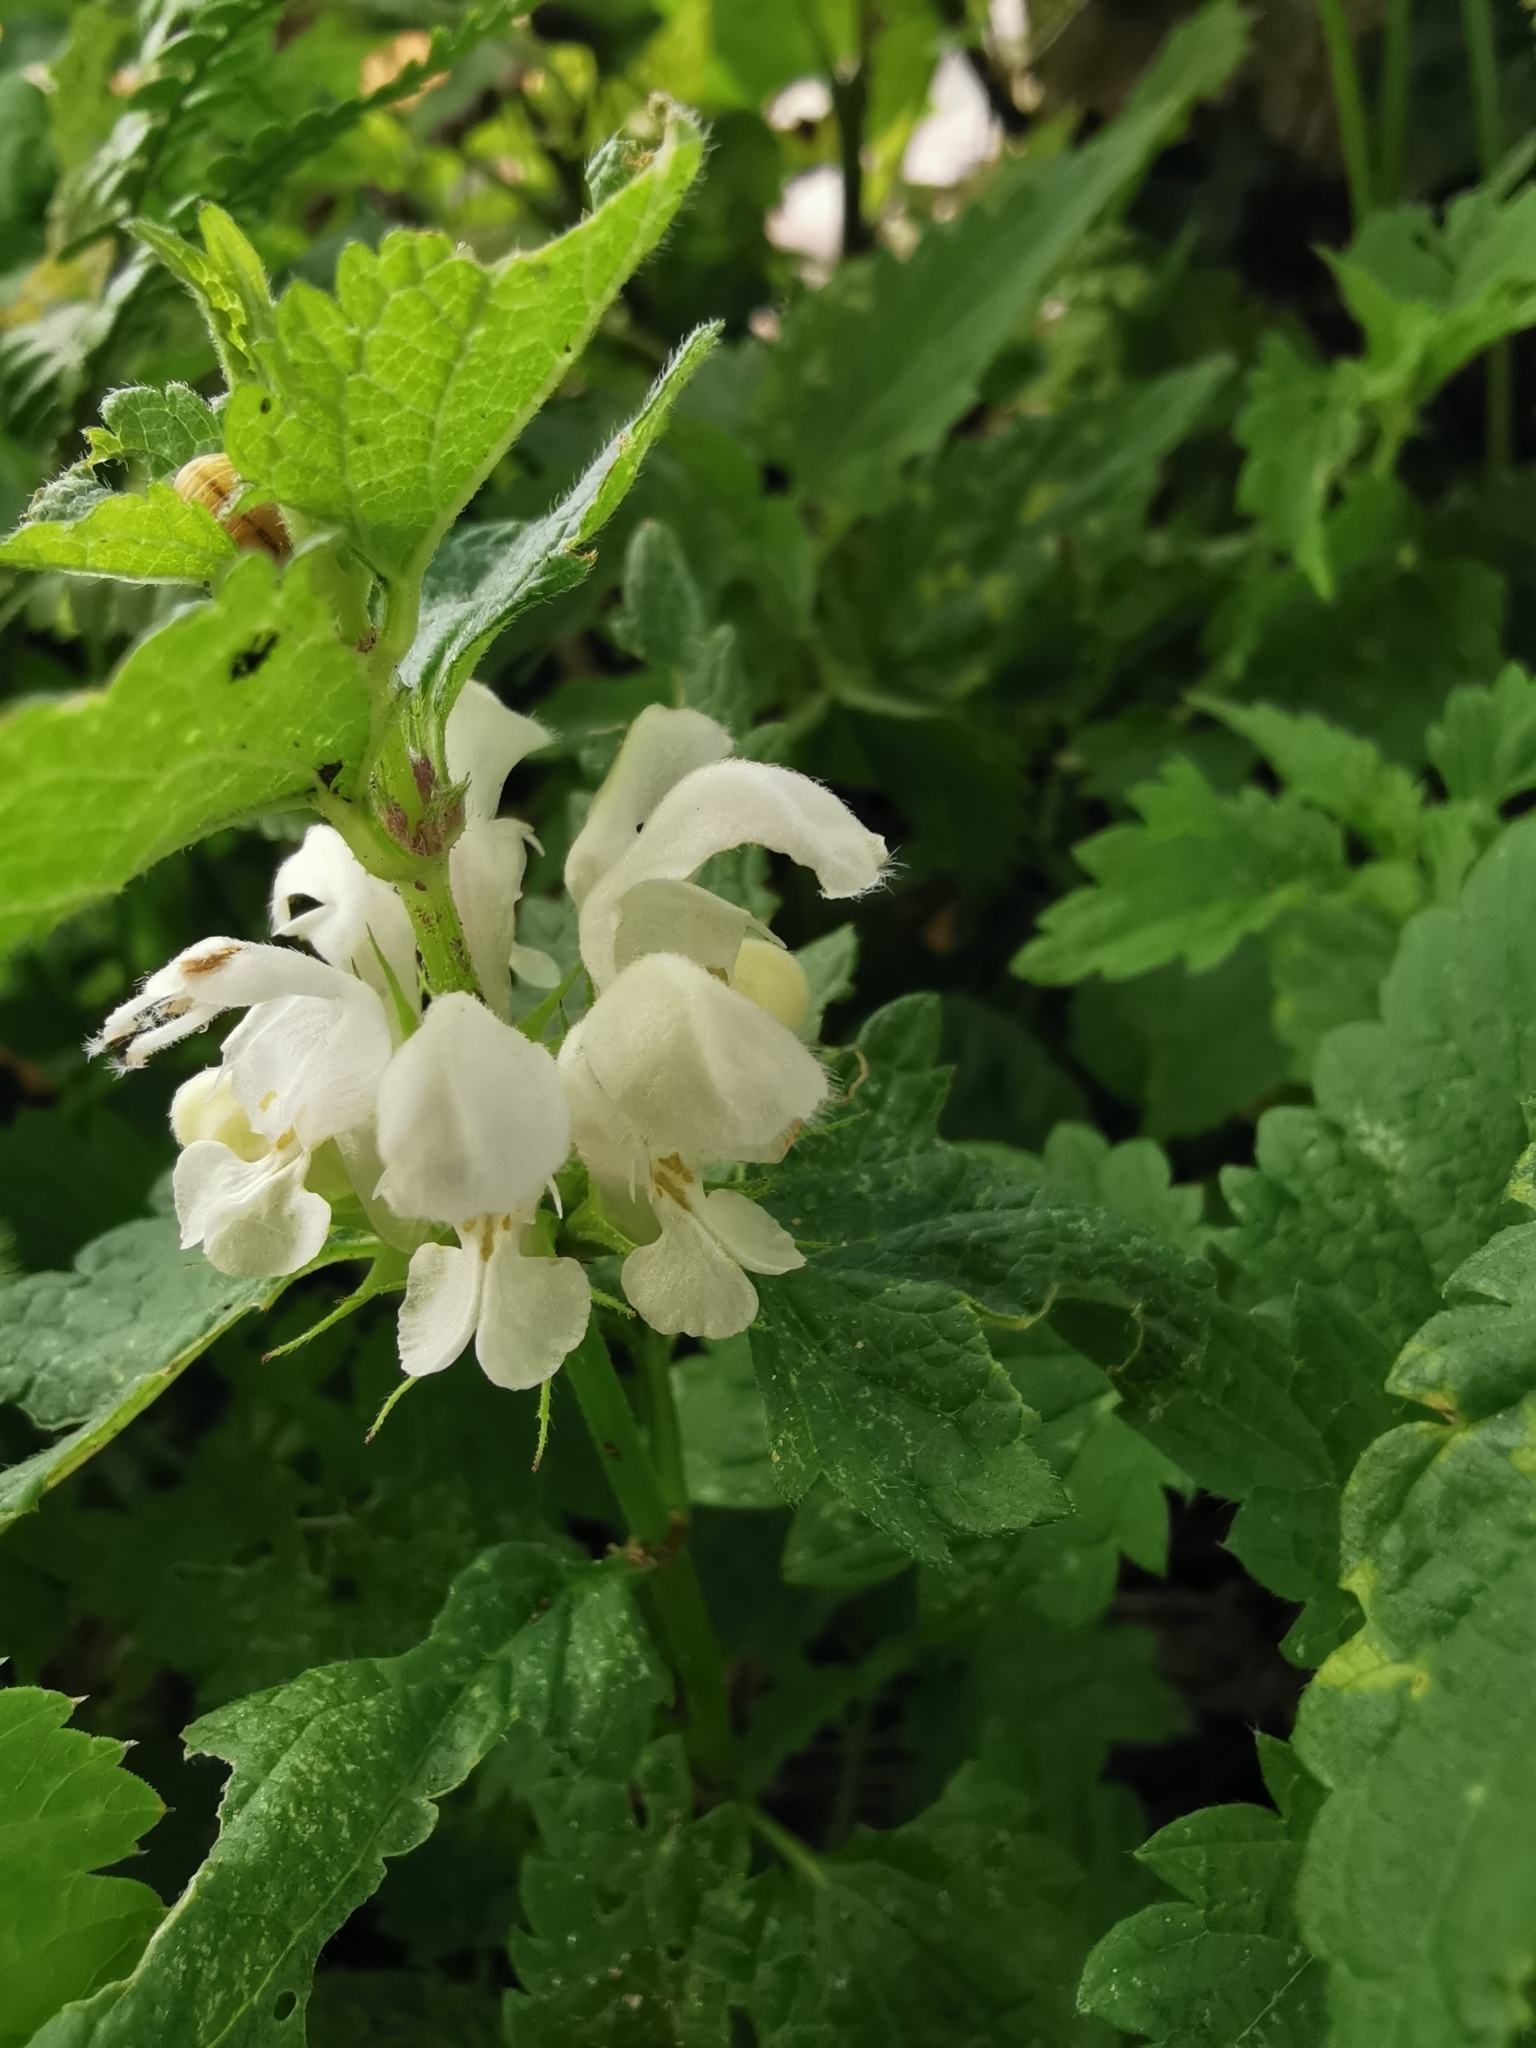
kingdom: Plantae
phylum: Tracheophyta
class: Magnoliopsida
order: Lamiales
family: Lamiaceae
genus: Lamium
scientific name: Lamium album
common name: White dead-nettle
